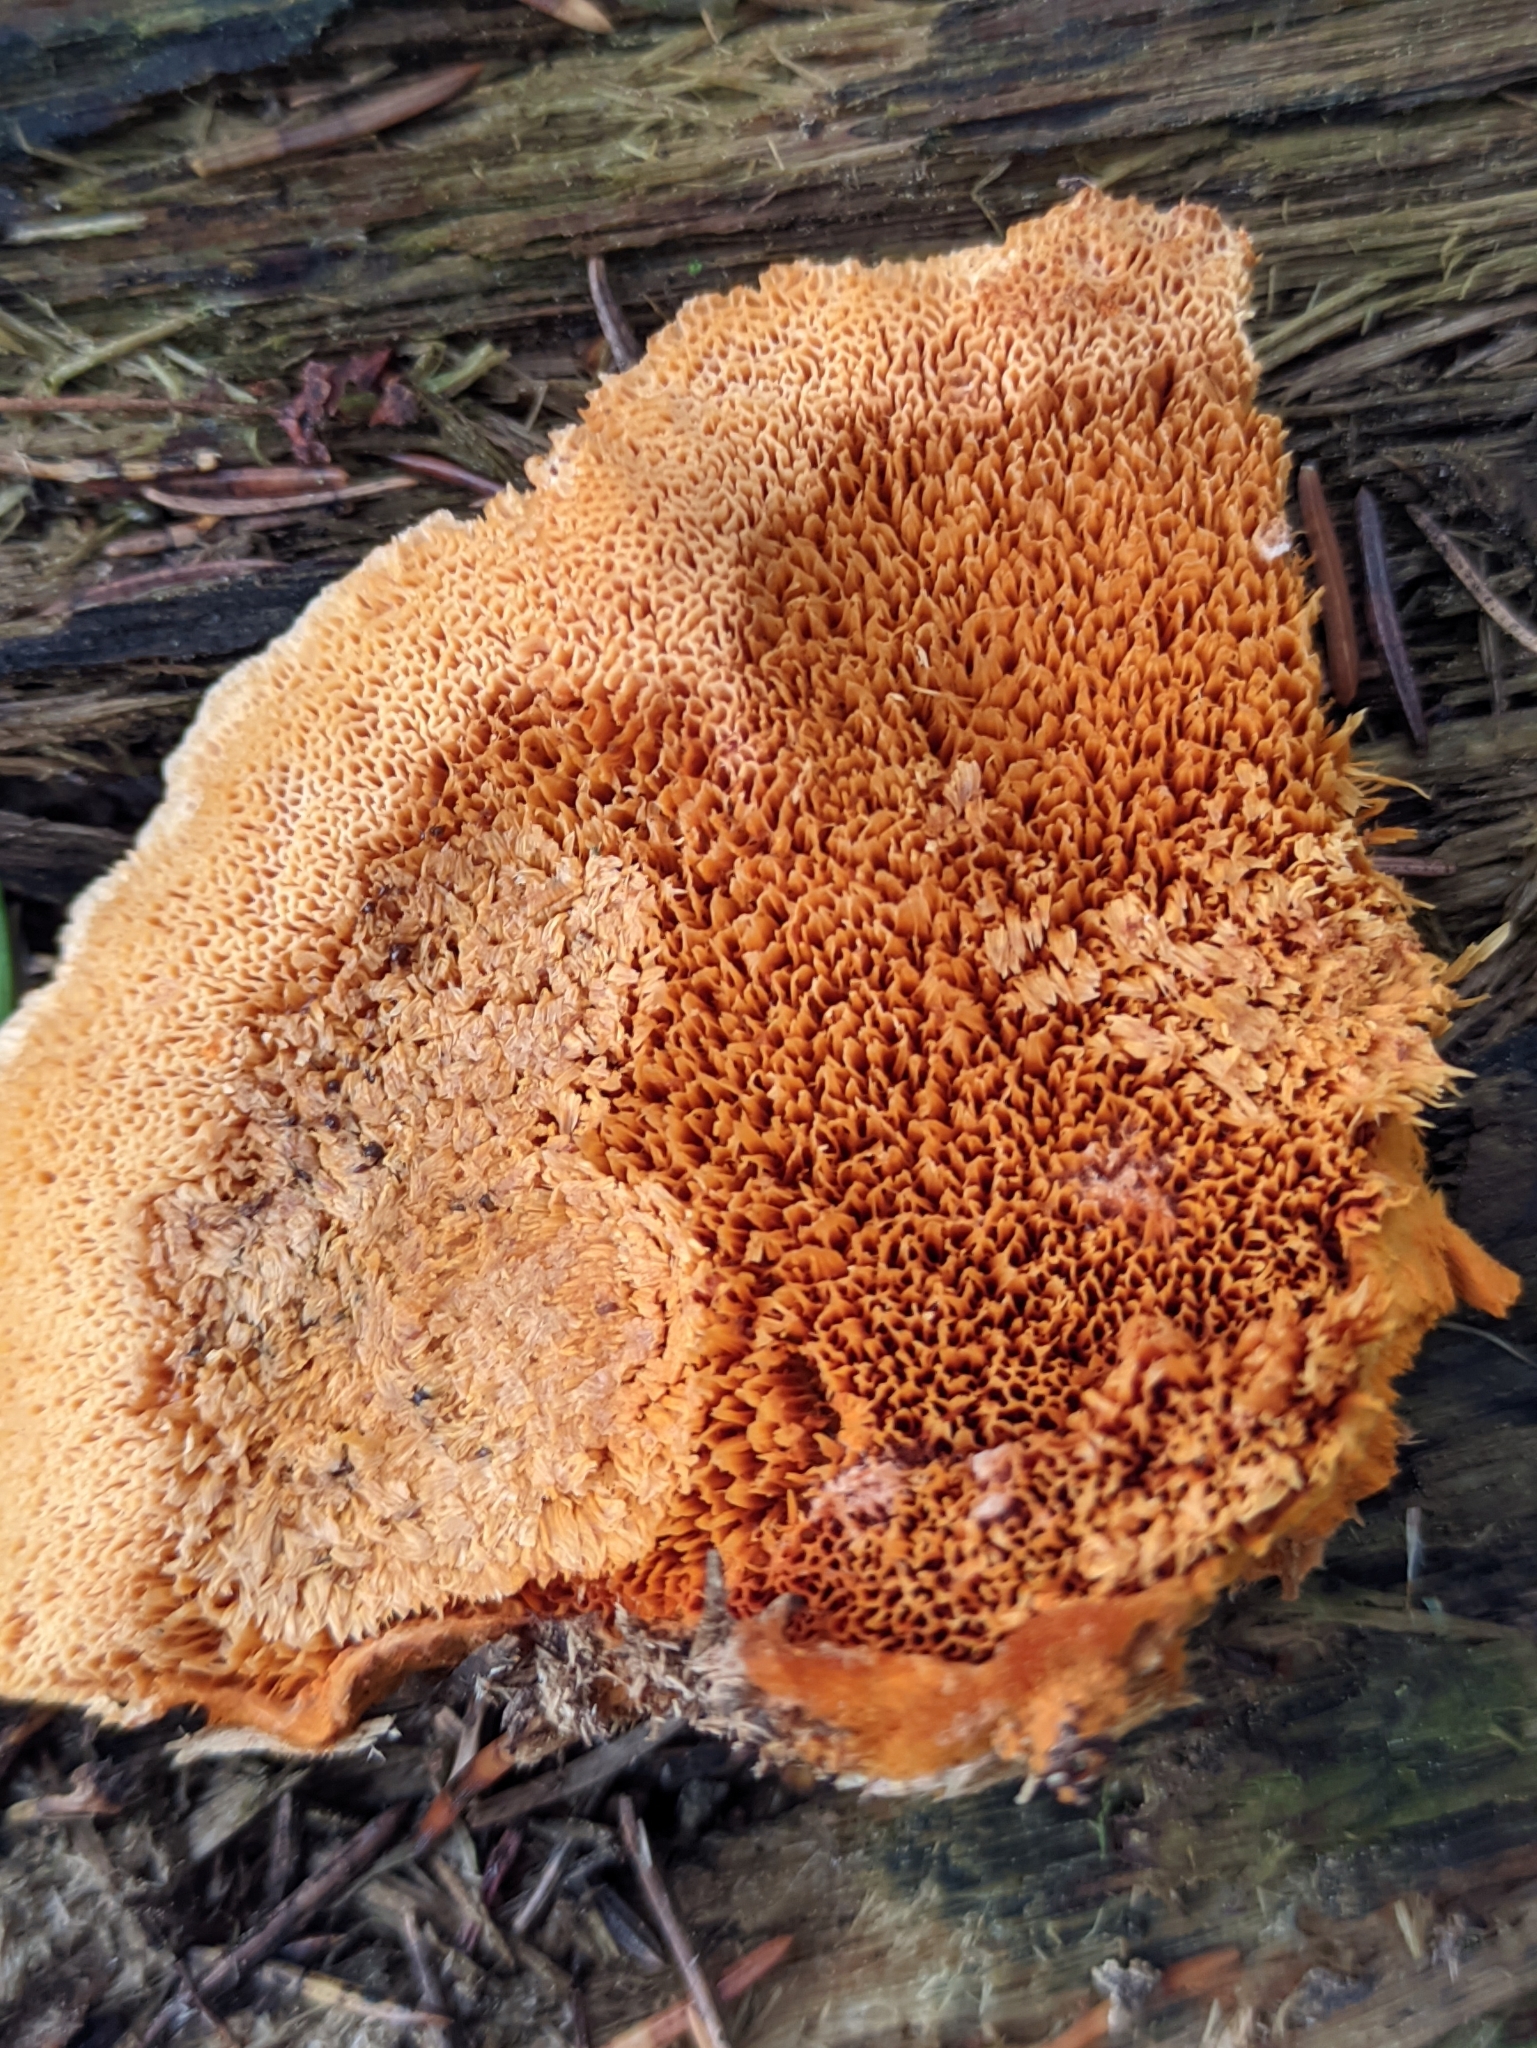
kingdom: Fungi
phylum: Basidiomycota
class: Agaricomycetes
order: Polyporales
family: Pycnoporellaceae
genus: Pycnoporellus
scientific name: Pycnoporellus fulgens
